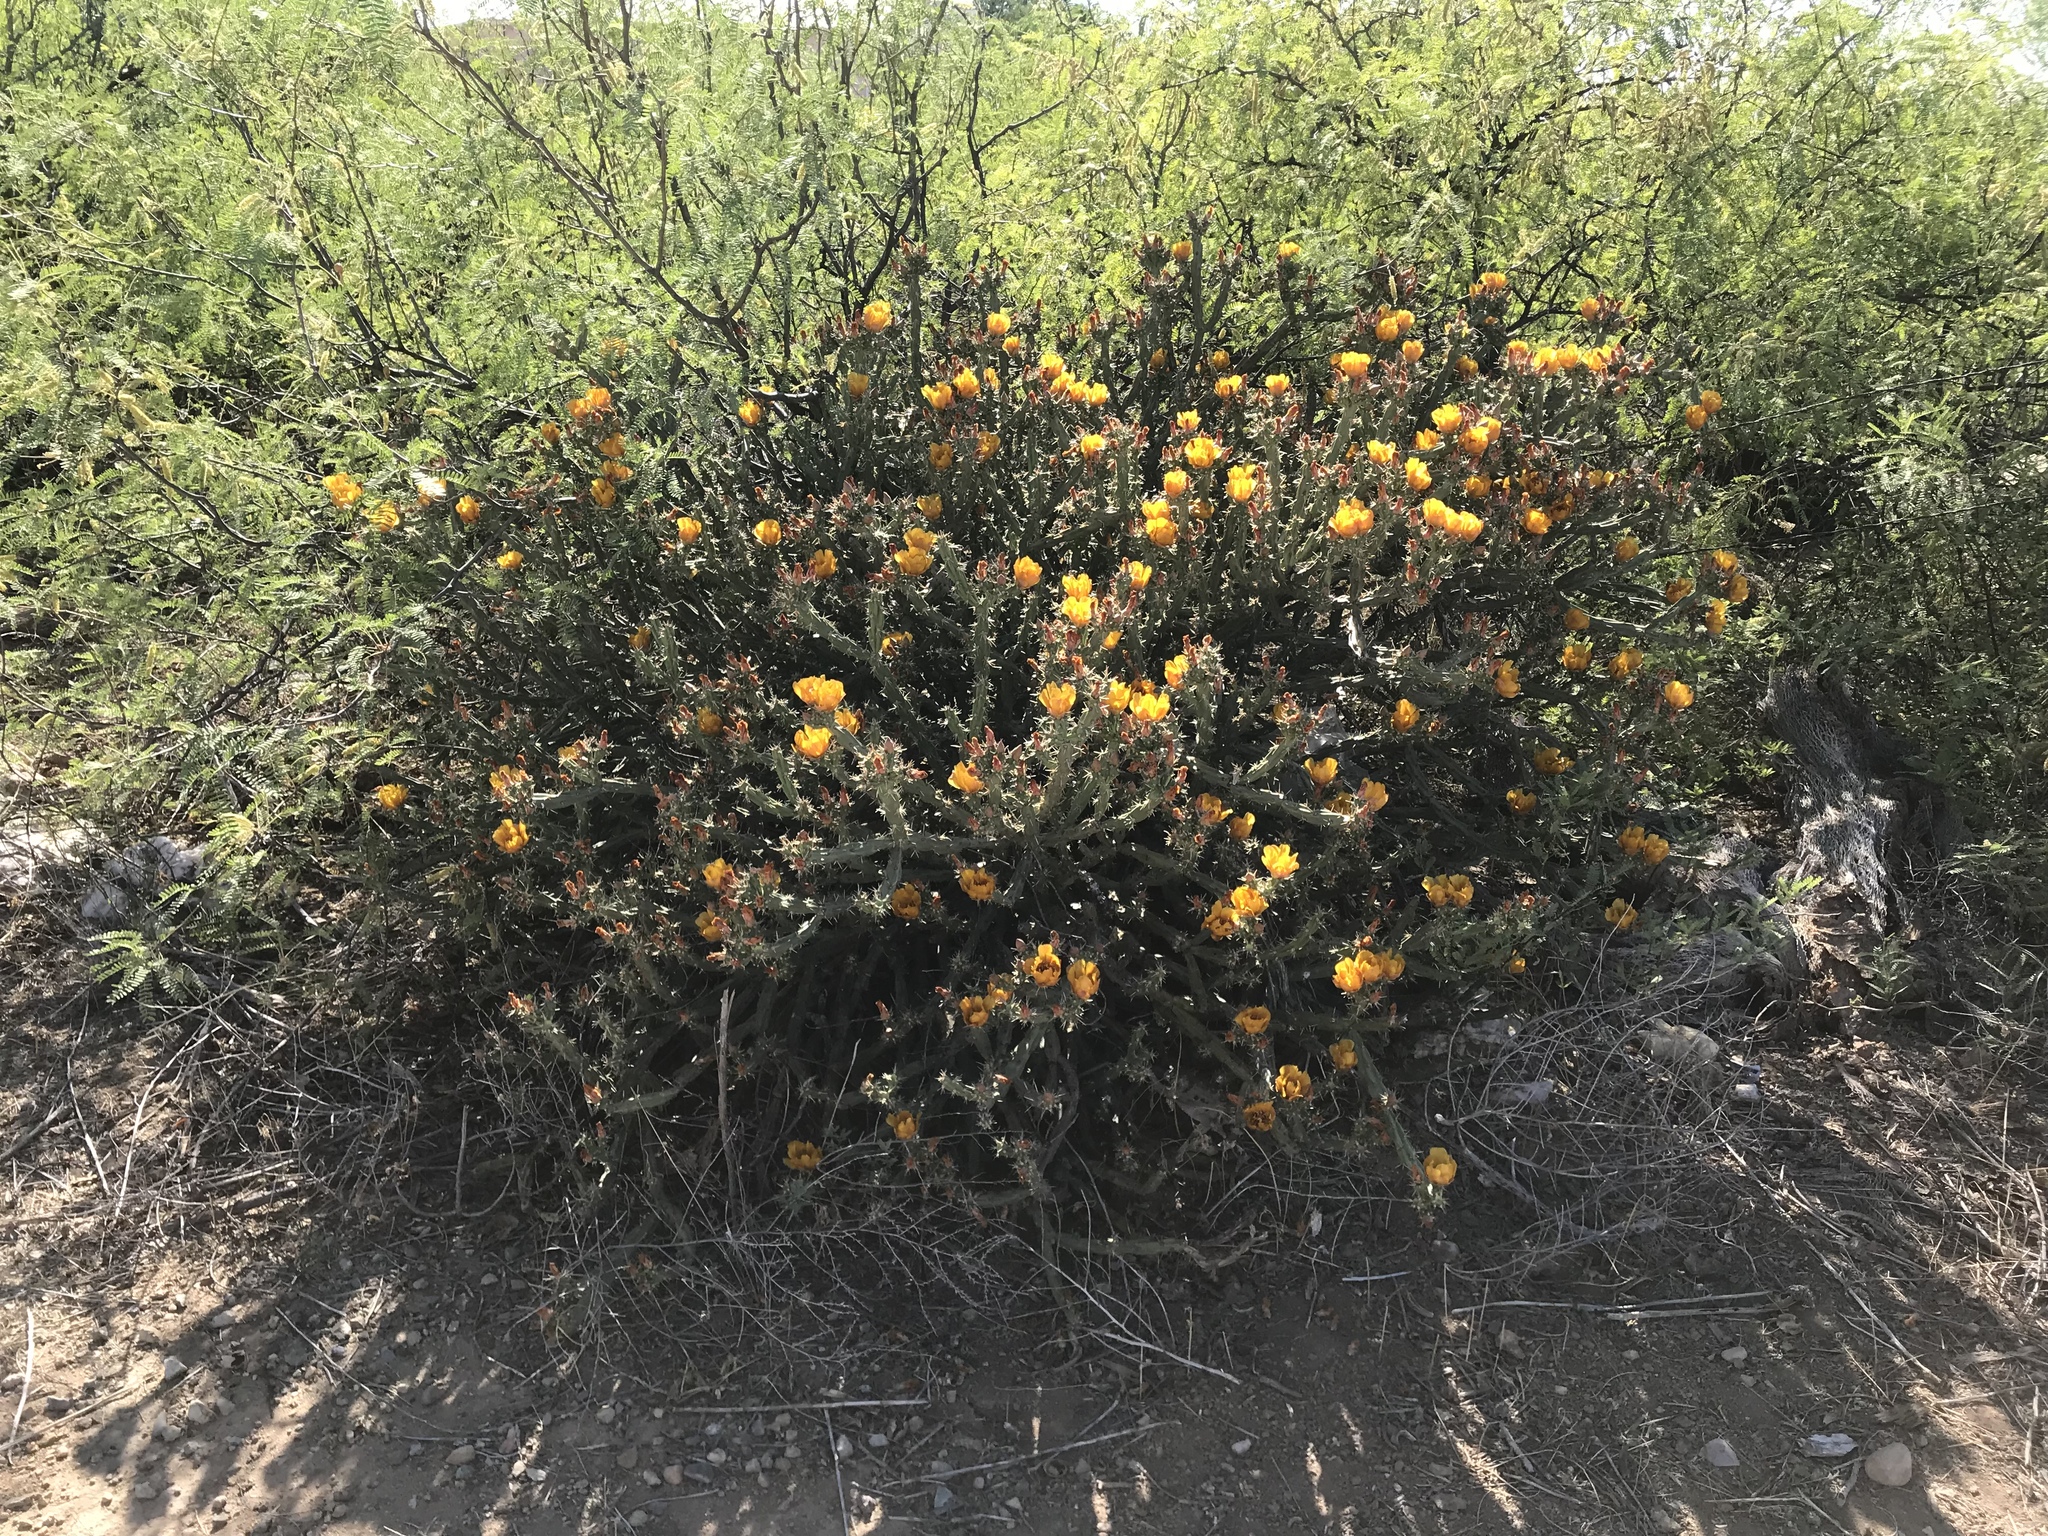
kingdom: Plantae
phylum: Tracheophyta
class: Magnoliopsida
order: Caryophyllales
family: Cactaceae
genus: Cylindropuntia
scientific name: Cylindropuntia acanthocarpa
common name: Buckhorn cholla
